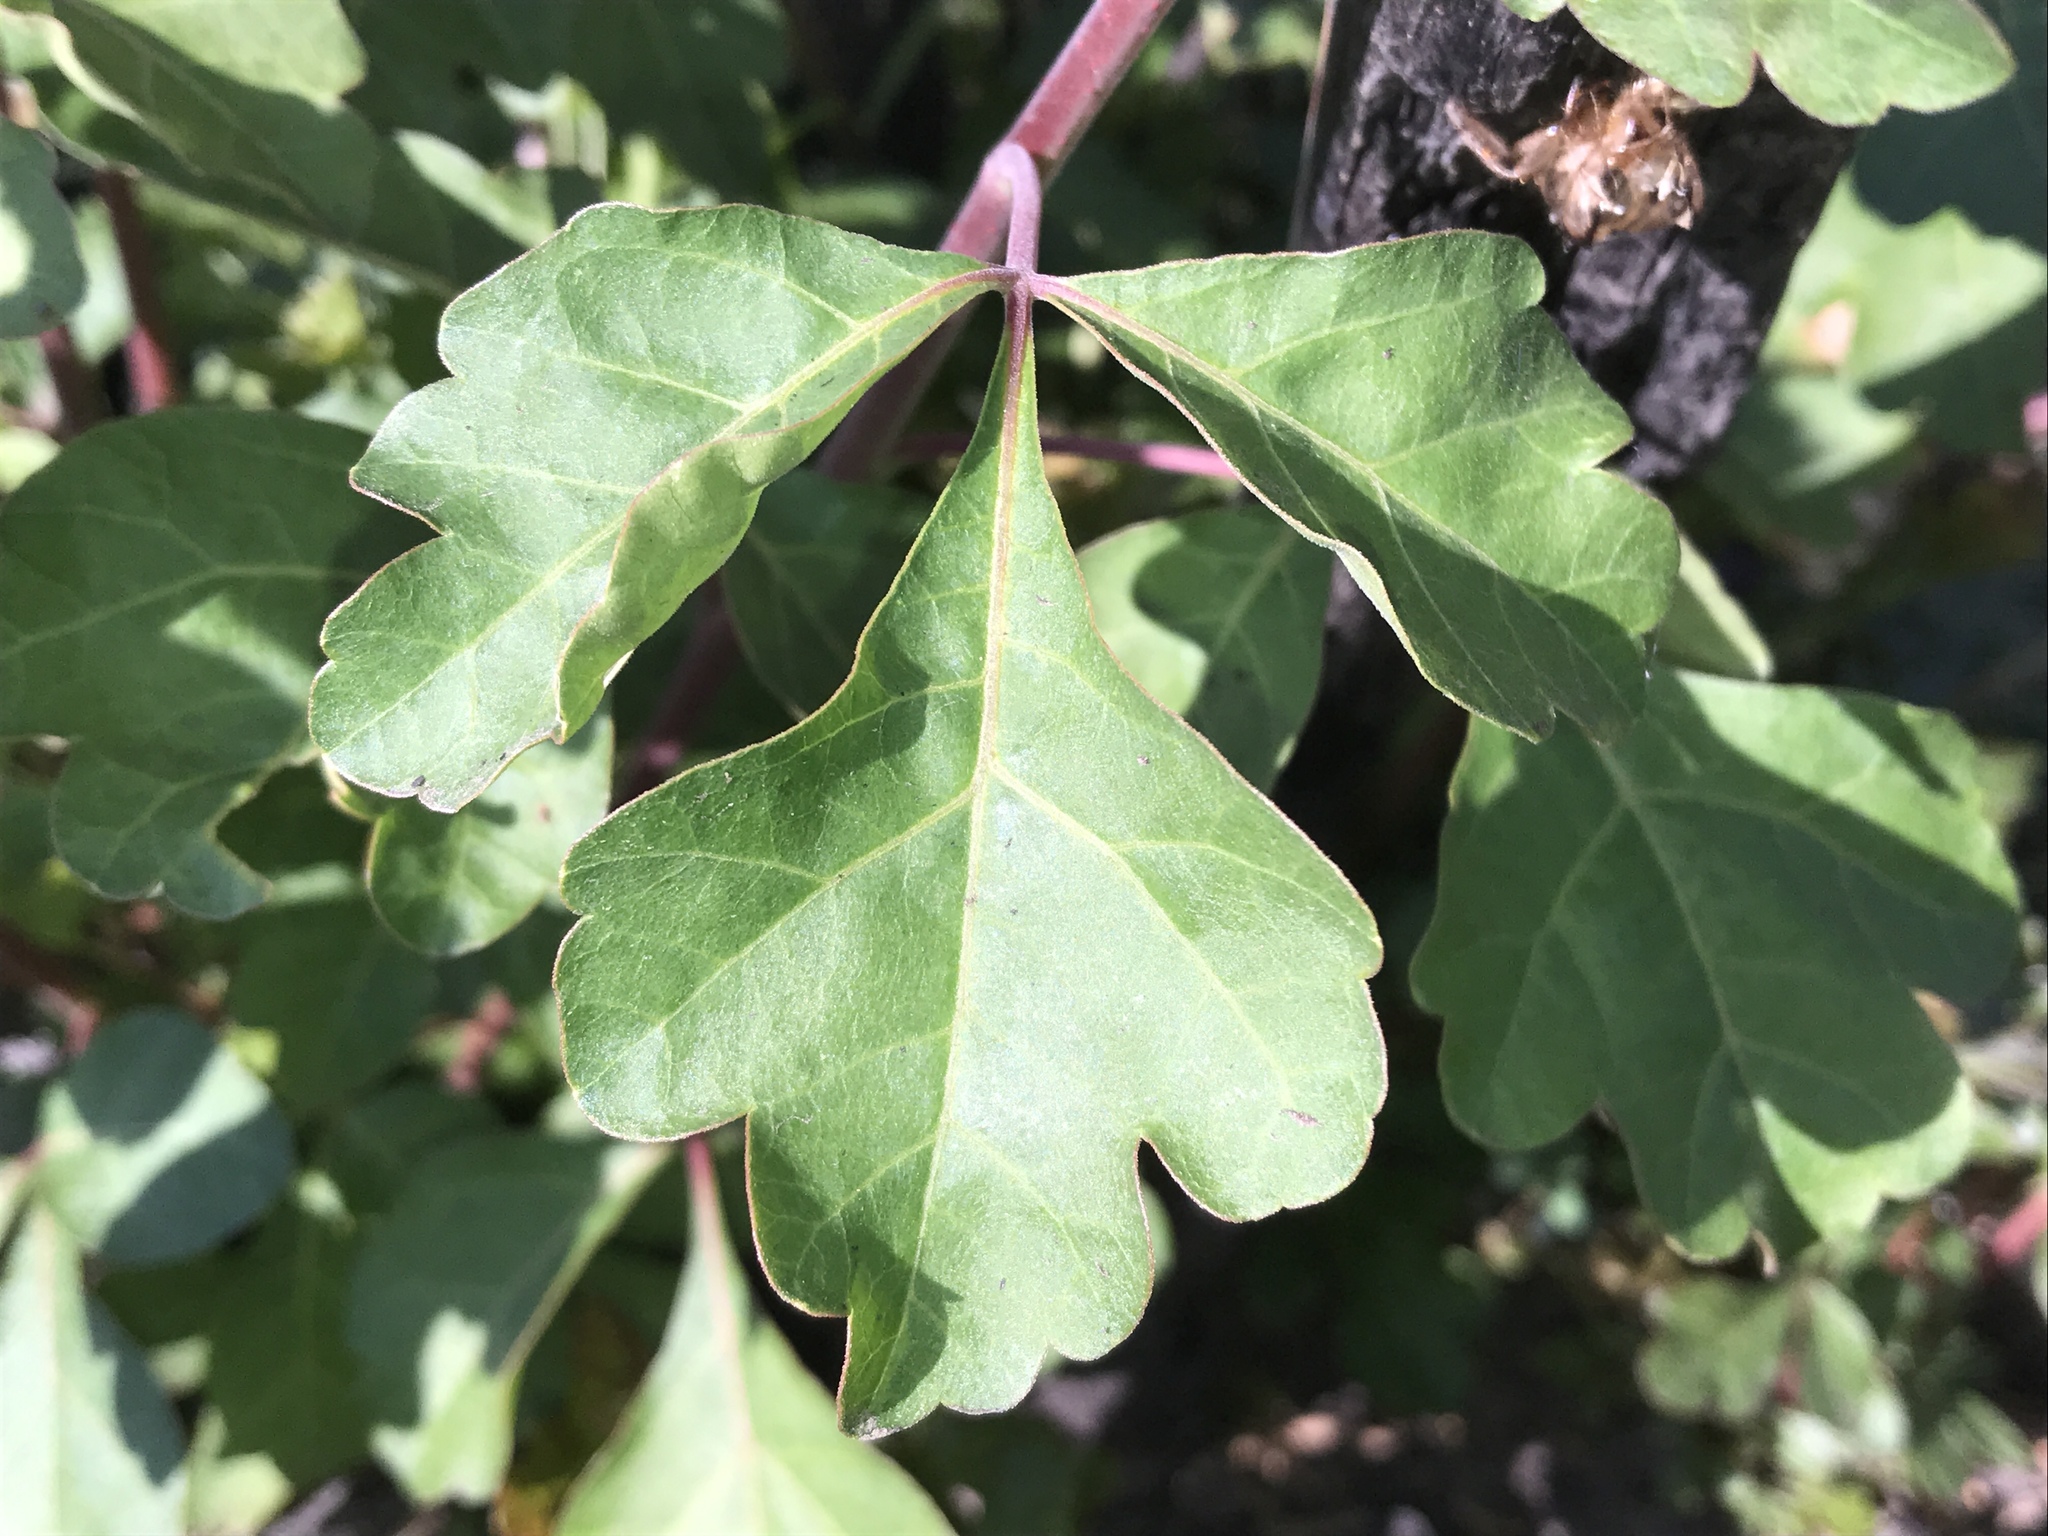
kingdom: Plantae
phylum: Tracheophyta
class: Magnoliopsida
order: Sapindales
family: Anacardiaceae
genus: Rhus
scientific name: Rhus aromatica
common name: Aromatic sumac
